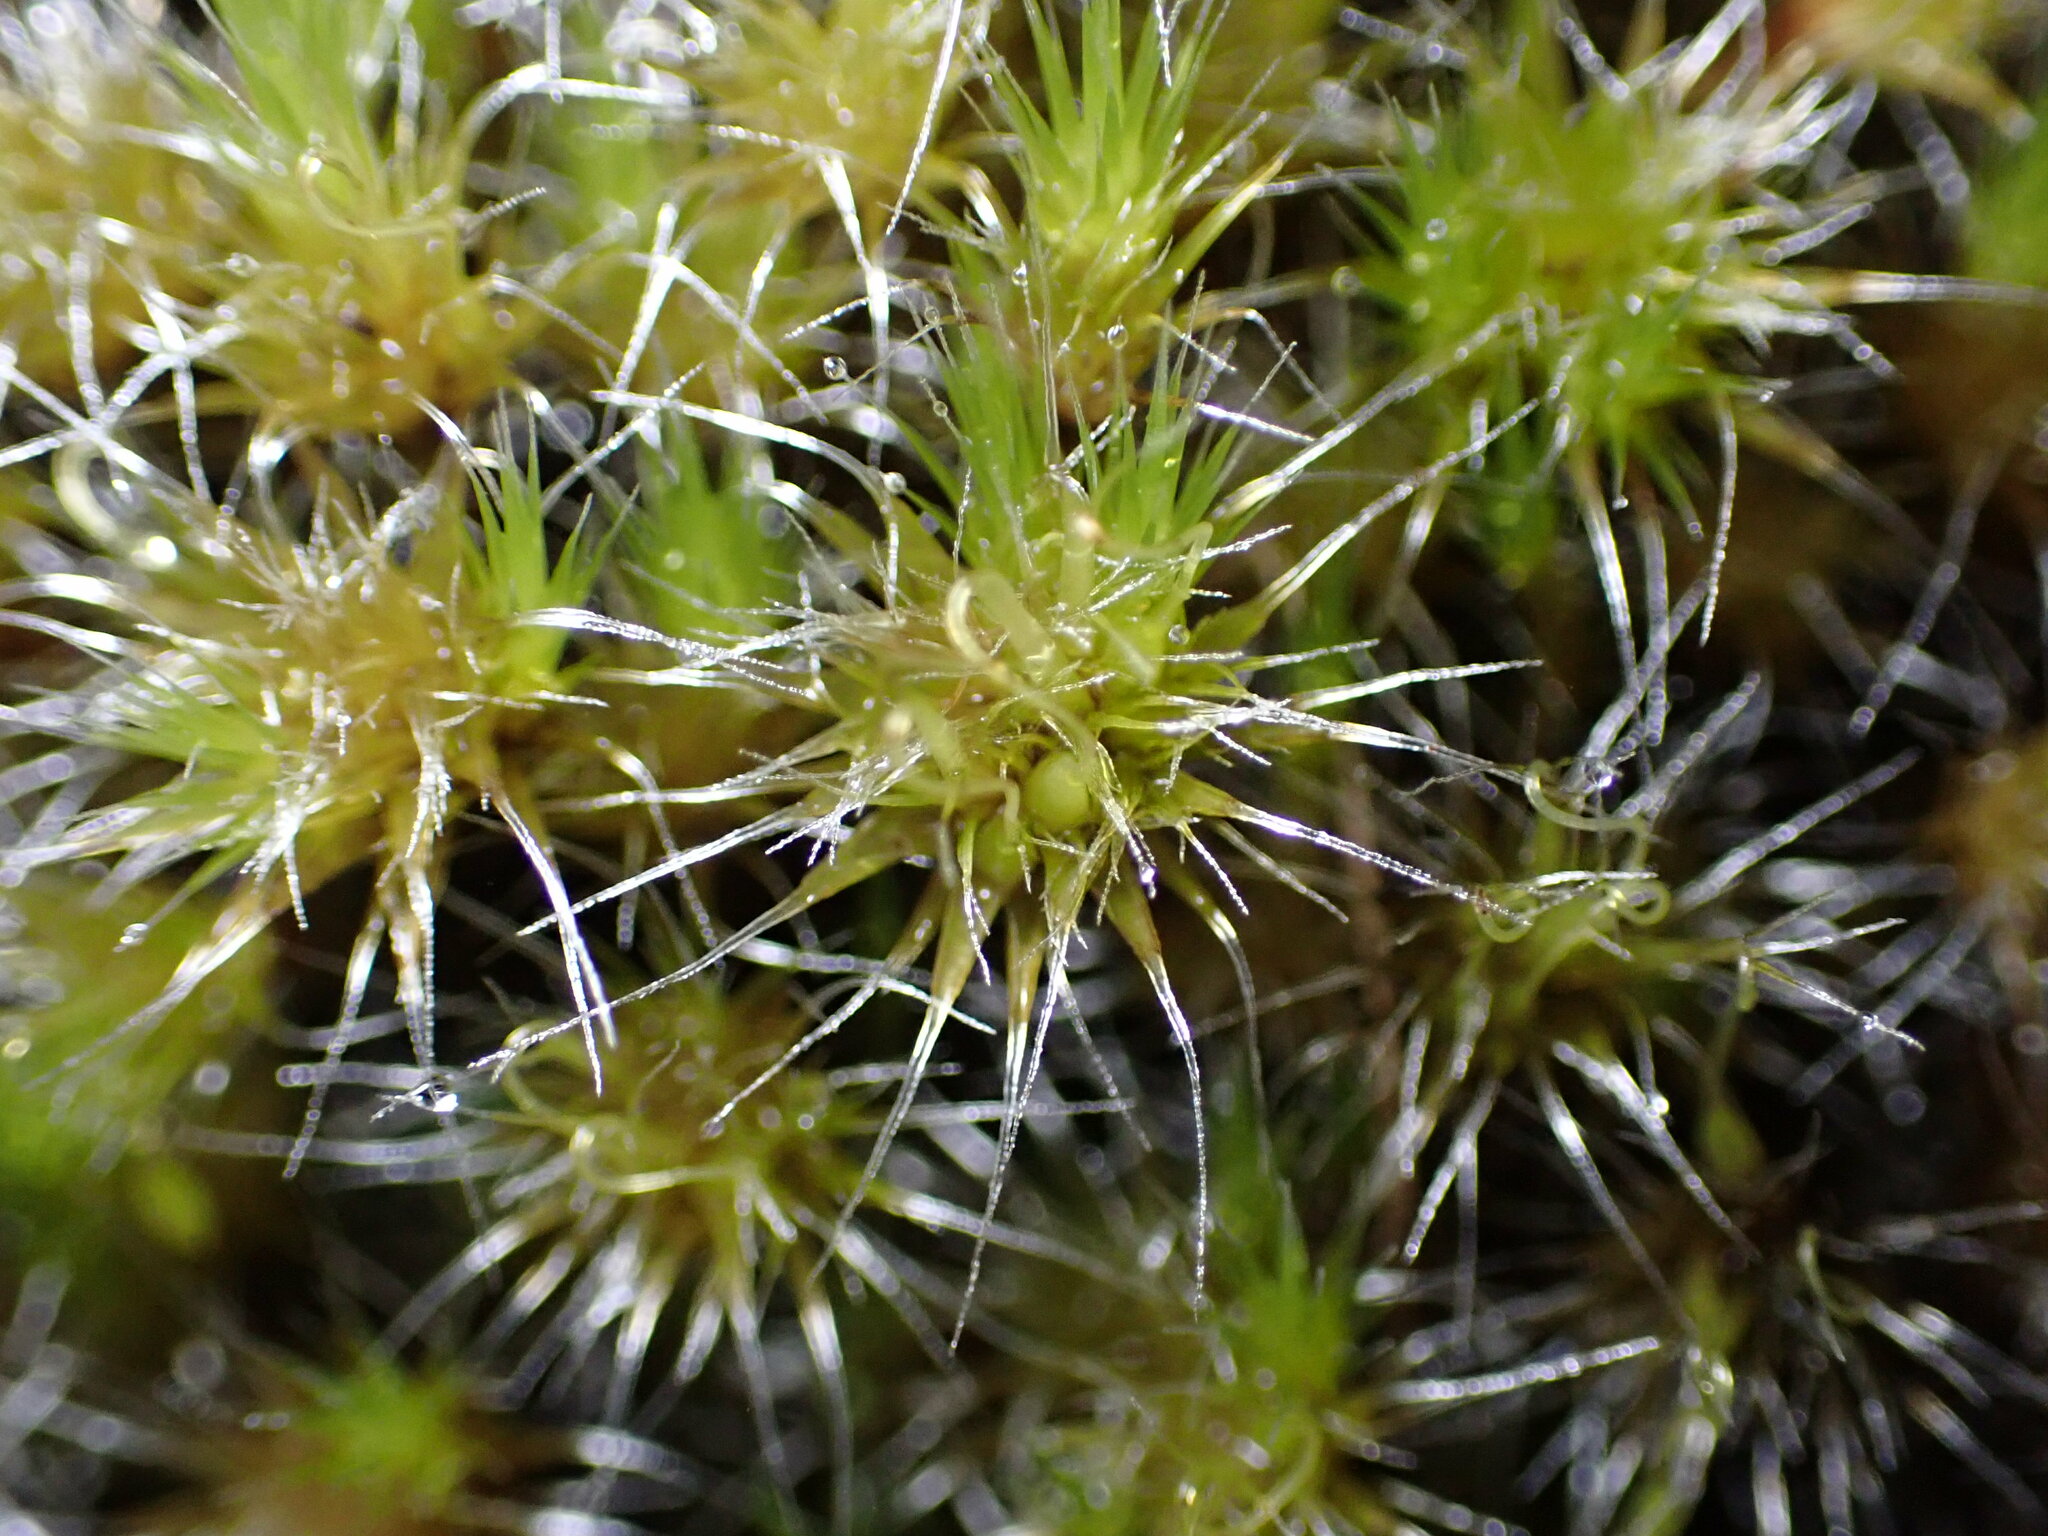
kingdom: Plantae
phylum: Bryophyta
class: Bryopsida
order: Dicranales
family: Leucobryaceae
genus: Campylopus
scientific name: Campylopus introflexus
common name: Heath star moss
